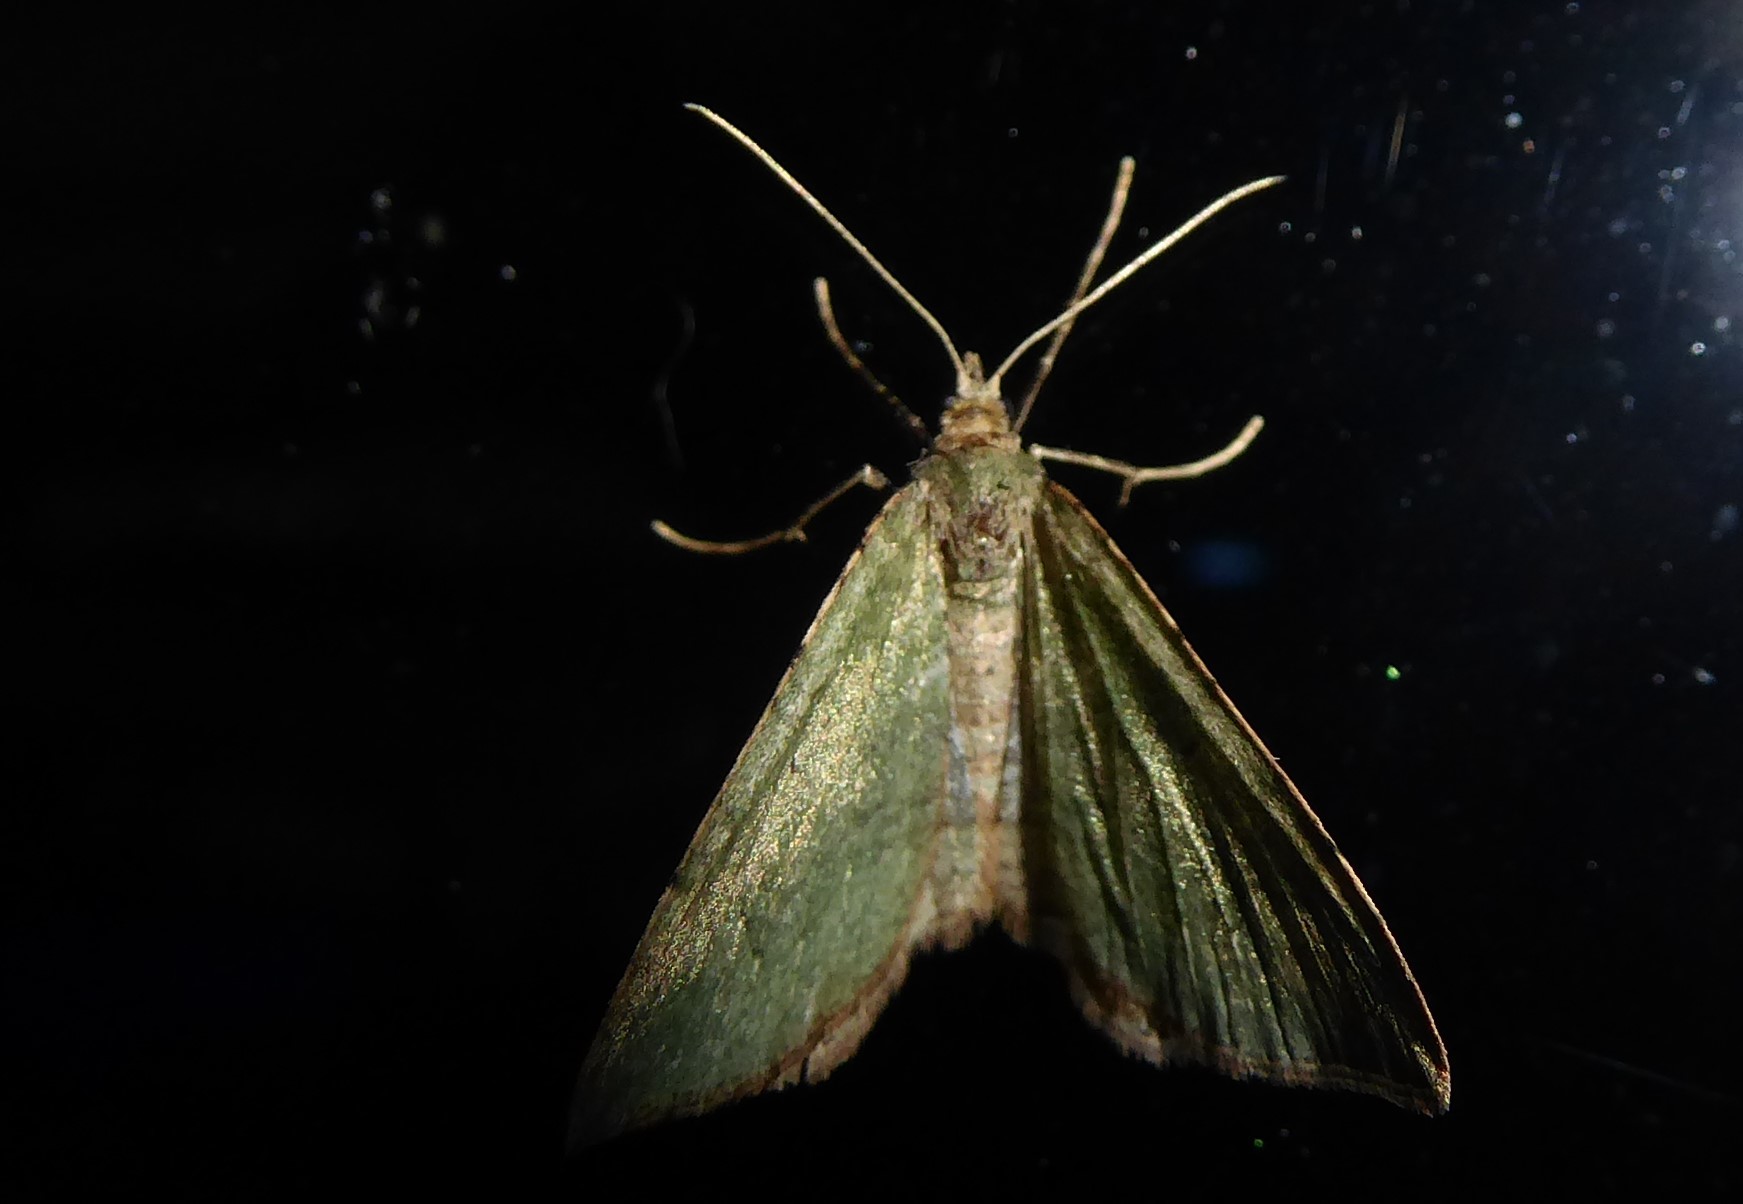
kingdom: Animalia
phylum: Arthropoda
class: Insecta
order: Lepidoptera
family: Geometridae
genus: Epyaxa
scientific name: Epyaxa rosearia
